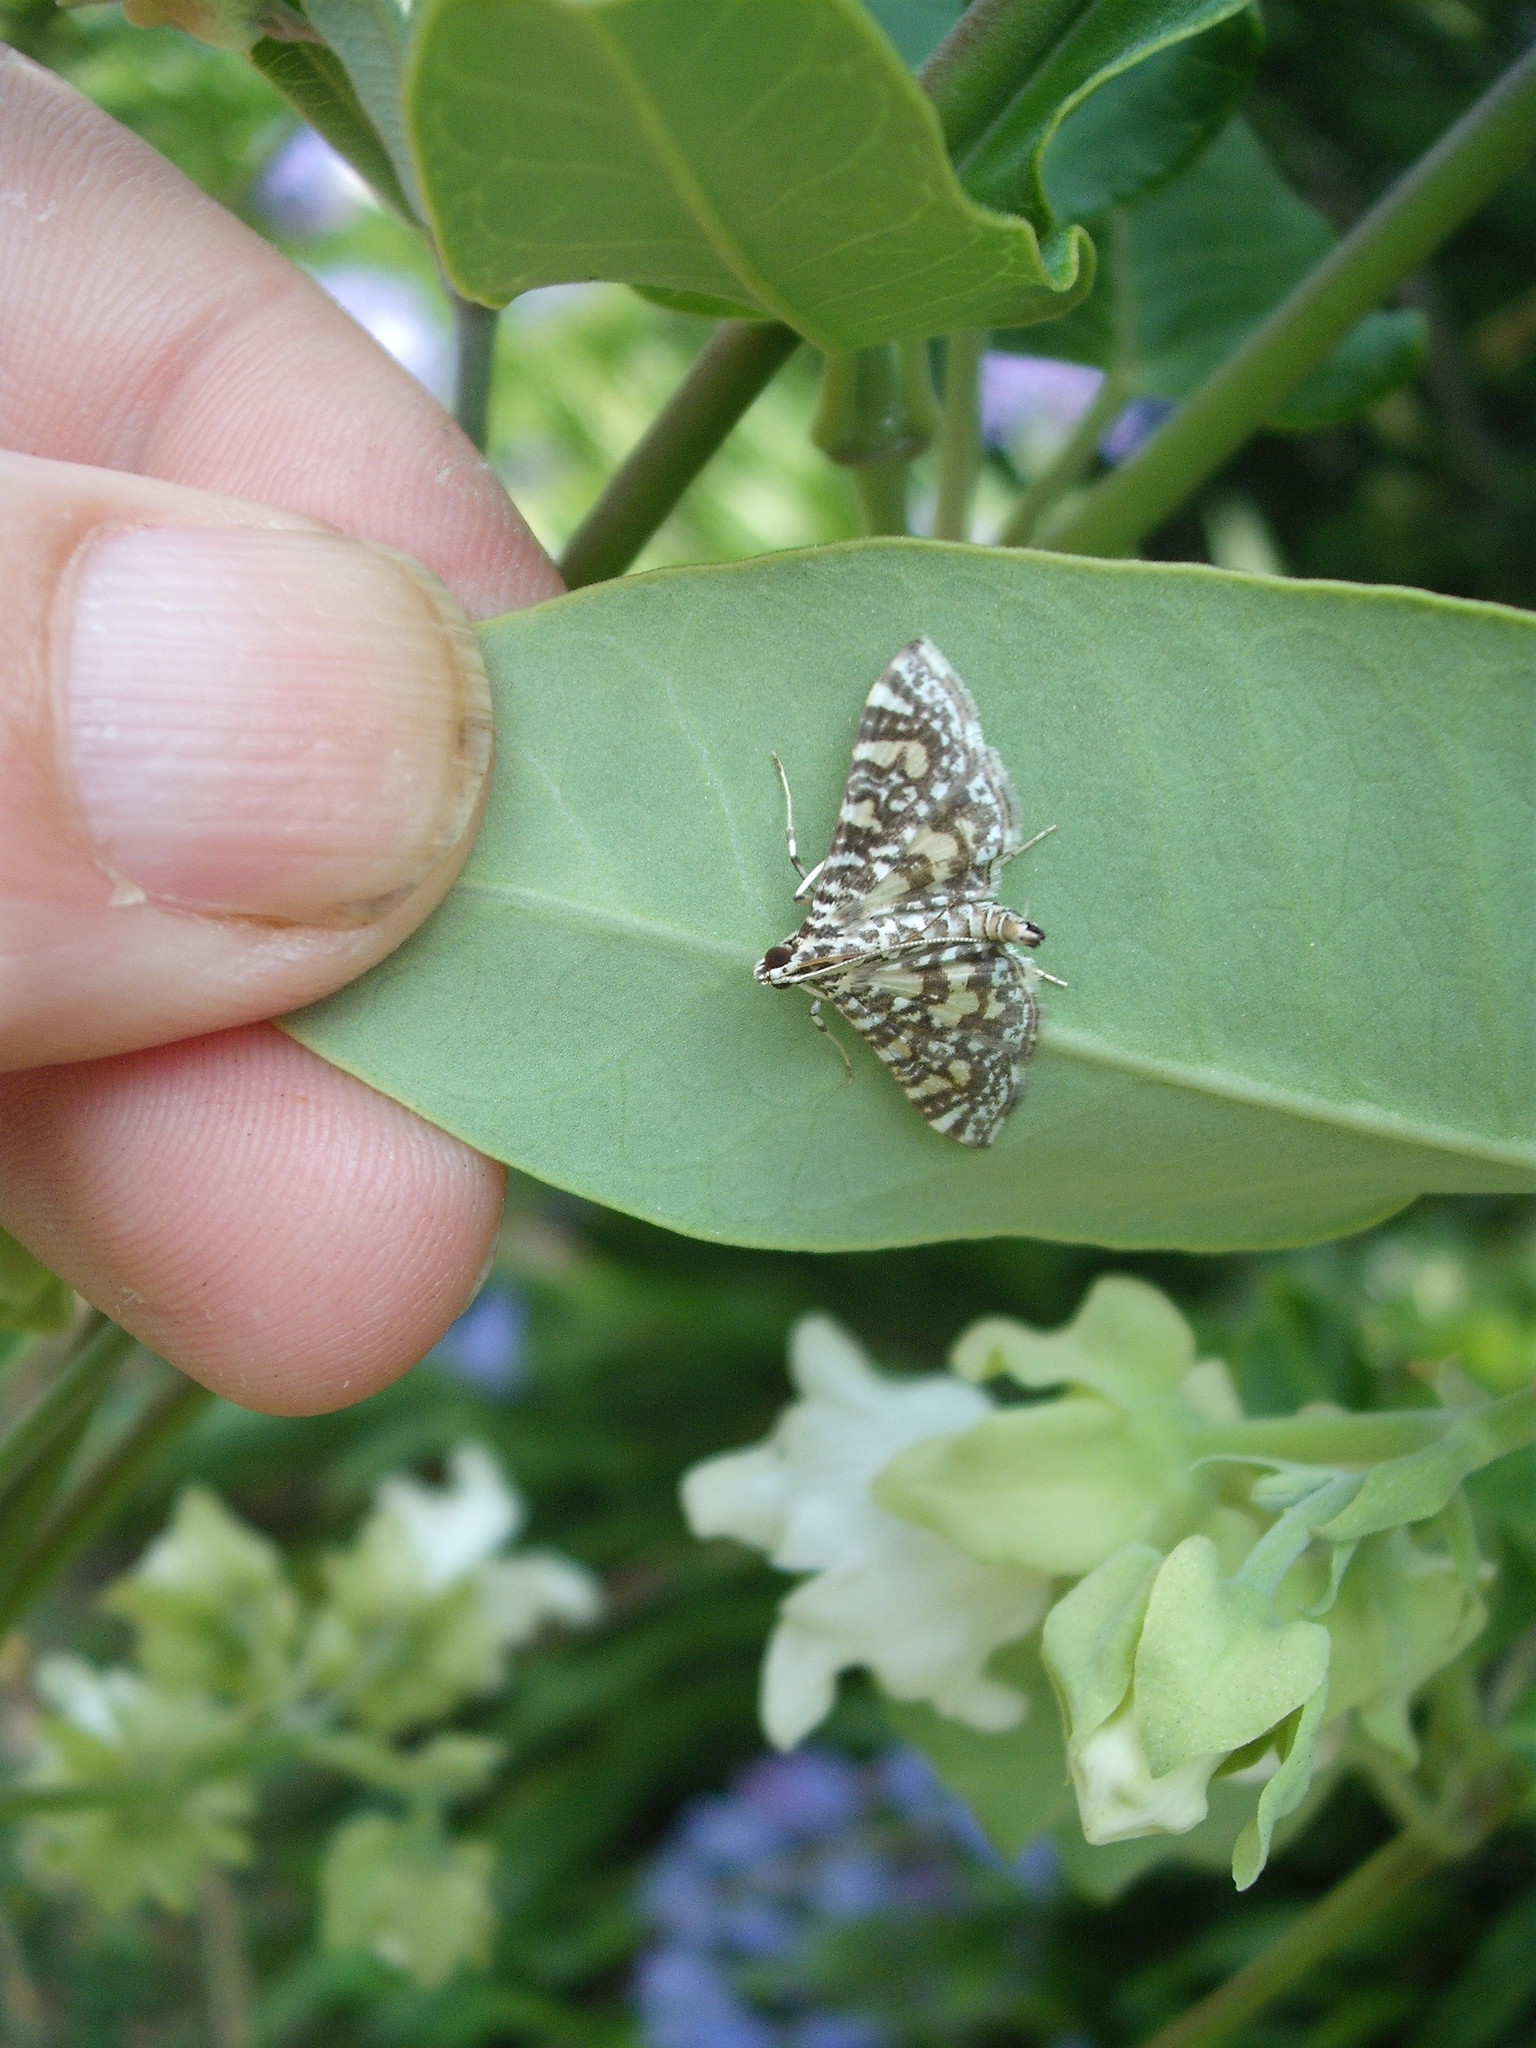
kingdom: Animalia
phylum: Arthropoda
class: Insecta
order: Lepidoptera
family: Crambidae
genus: Glyphodes
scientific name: Glyphodes onychinalis
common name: Swan plant moth
